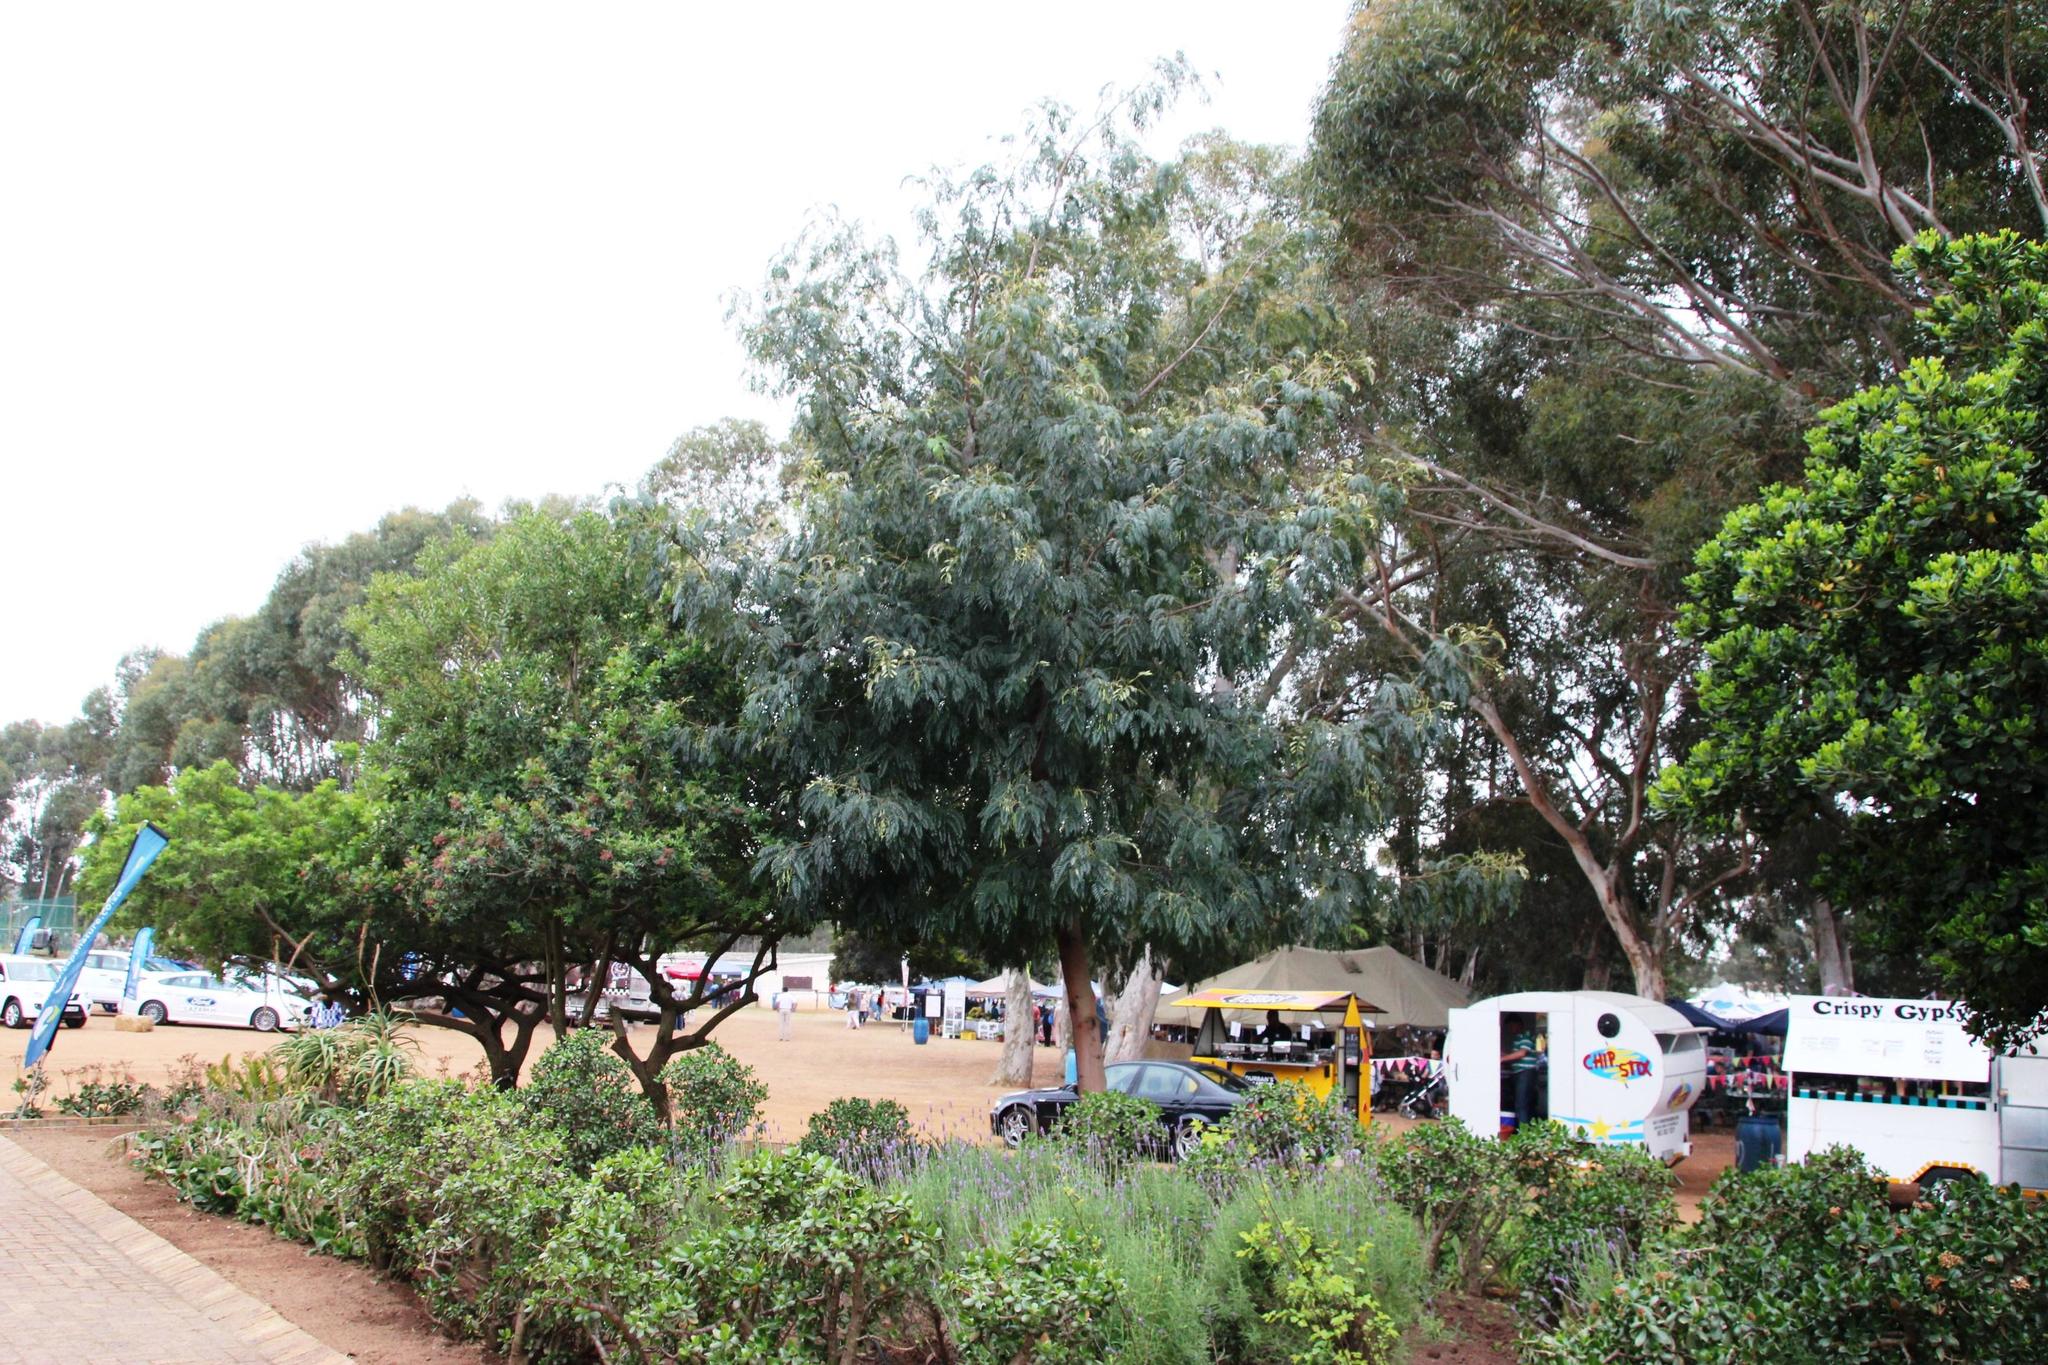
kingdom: Plantae
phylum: Tracheophyta
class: Magnoliopsida
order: Sapindales
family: Anacardiaceae
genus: Schinus
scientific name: Schinus terebinthifolia
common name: Brazilian peppertree
